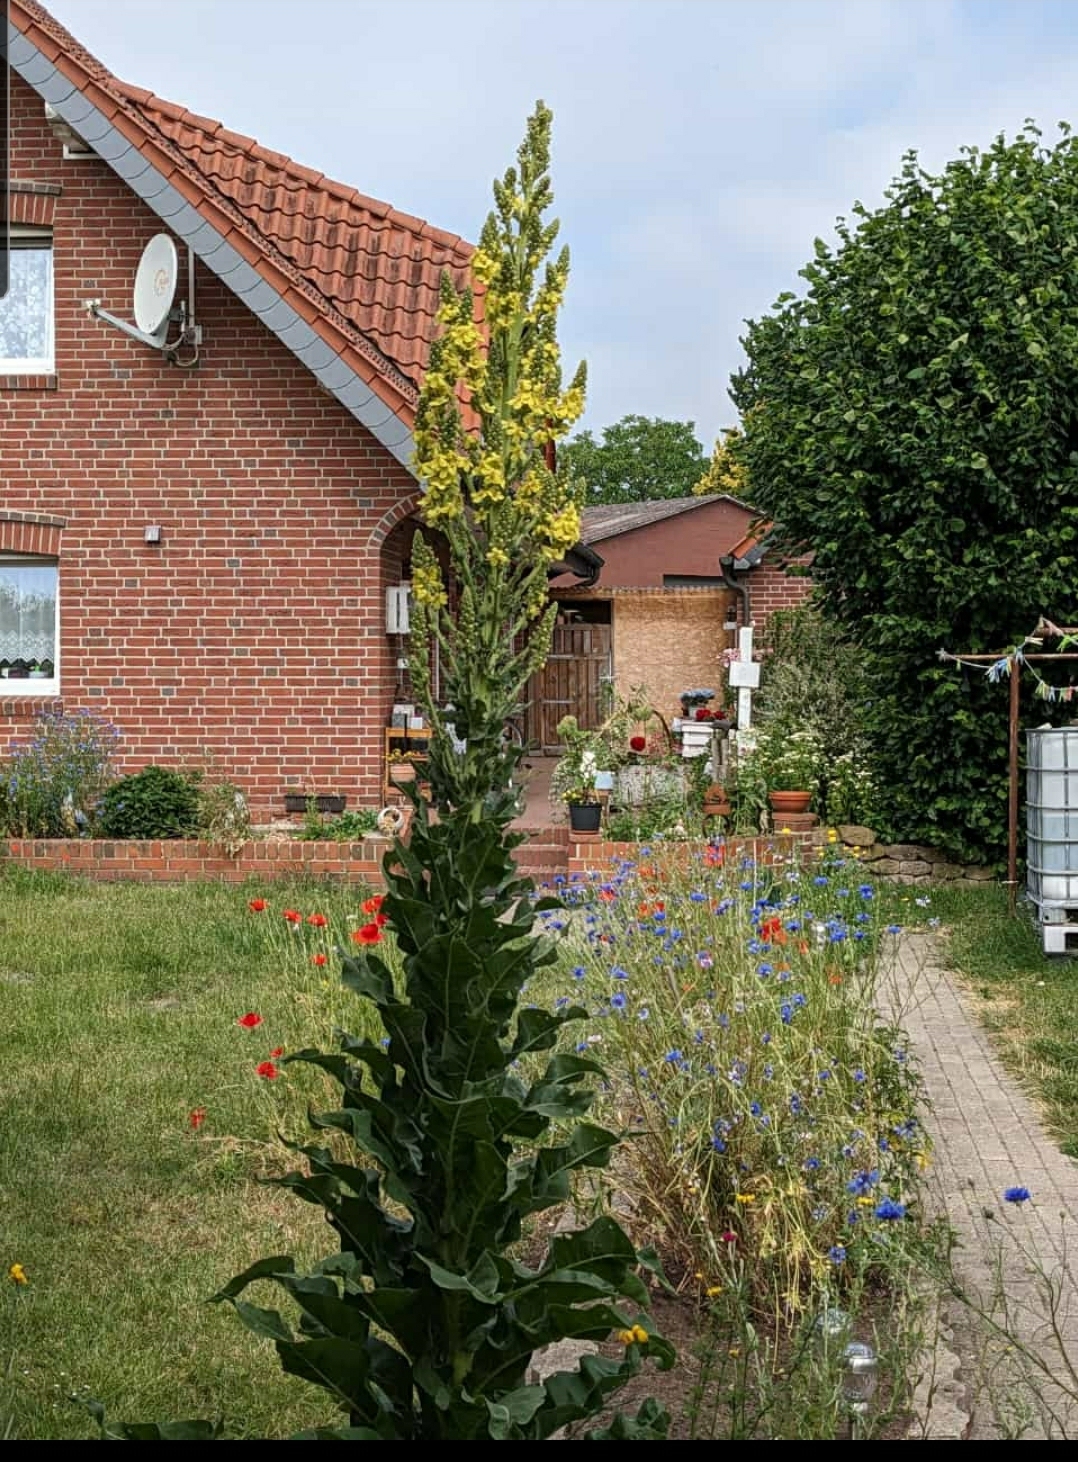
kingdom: Plantae
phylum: Tracheophyta
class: Magnoliopsida
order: Lamiales
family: Scrophulariaceae
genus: Verbascum
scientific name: Verbascum speciosum
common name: Hungarian mullein
